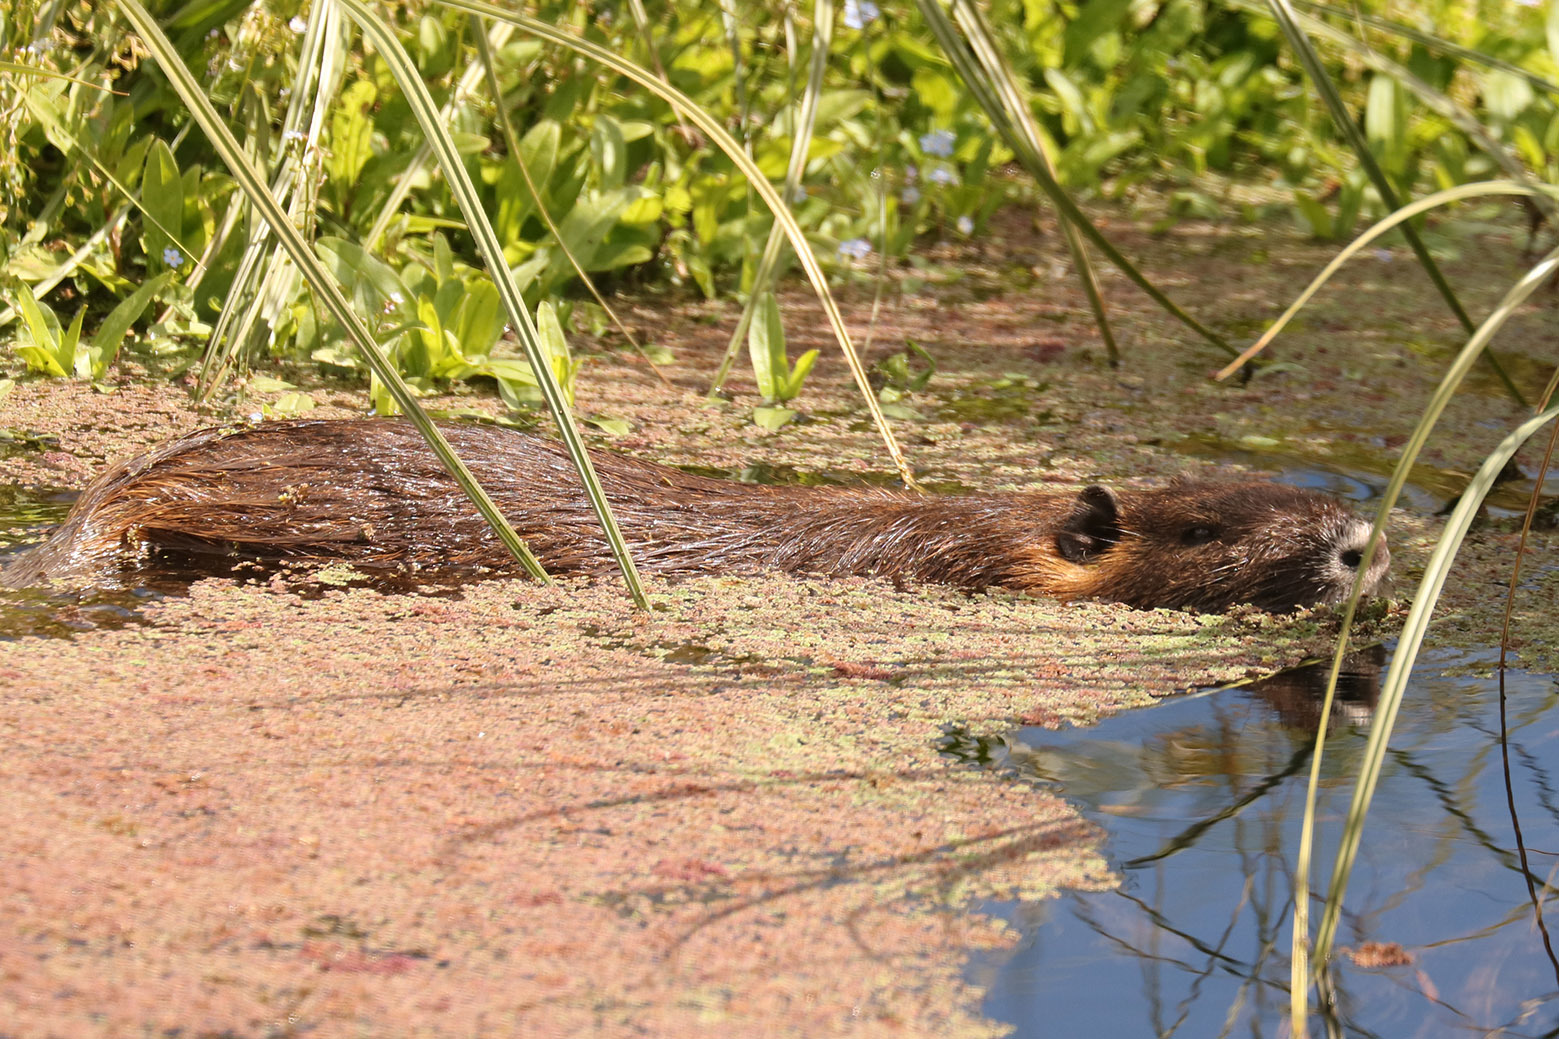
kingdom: Animalia
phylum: Chordata
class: Mammalia
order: Rodentia
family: Myocastoridae
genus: Myocastor
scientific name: Myocastor coypus
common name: Coypu
